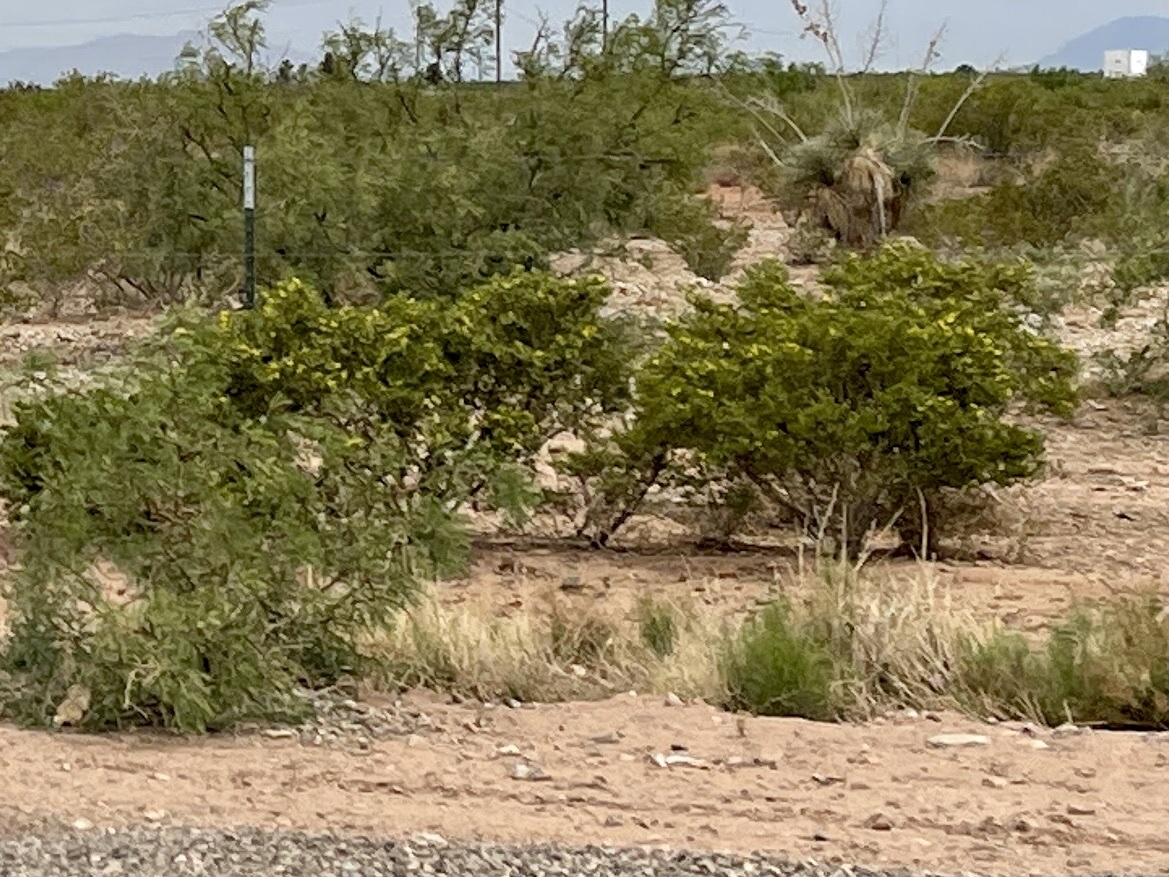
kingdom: Plantae
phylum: Tracheophyta
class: Magnoliopsida
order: Zygophyllales
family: Zygophyllaceae
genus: Larrea
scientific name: Larrea tridentata
